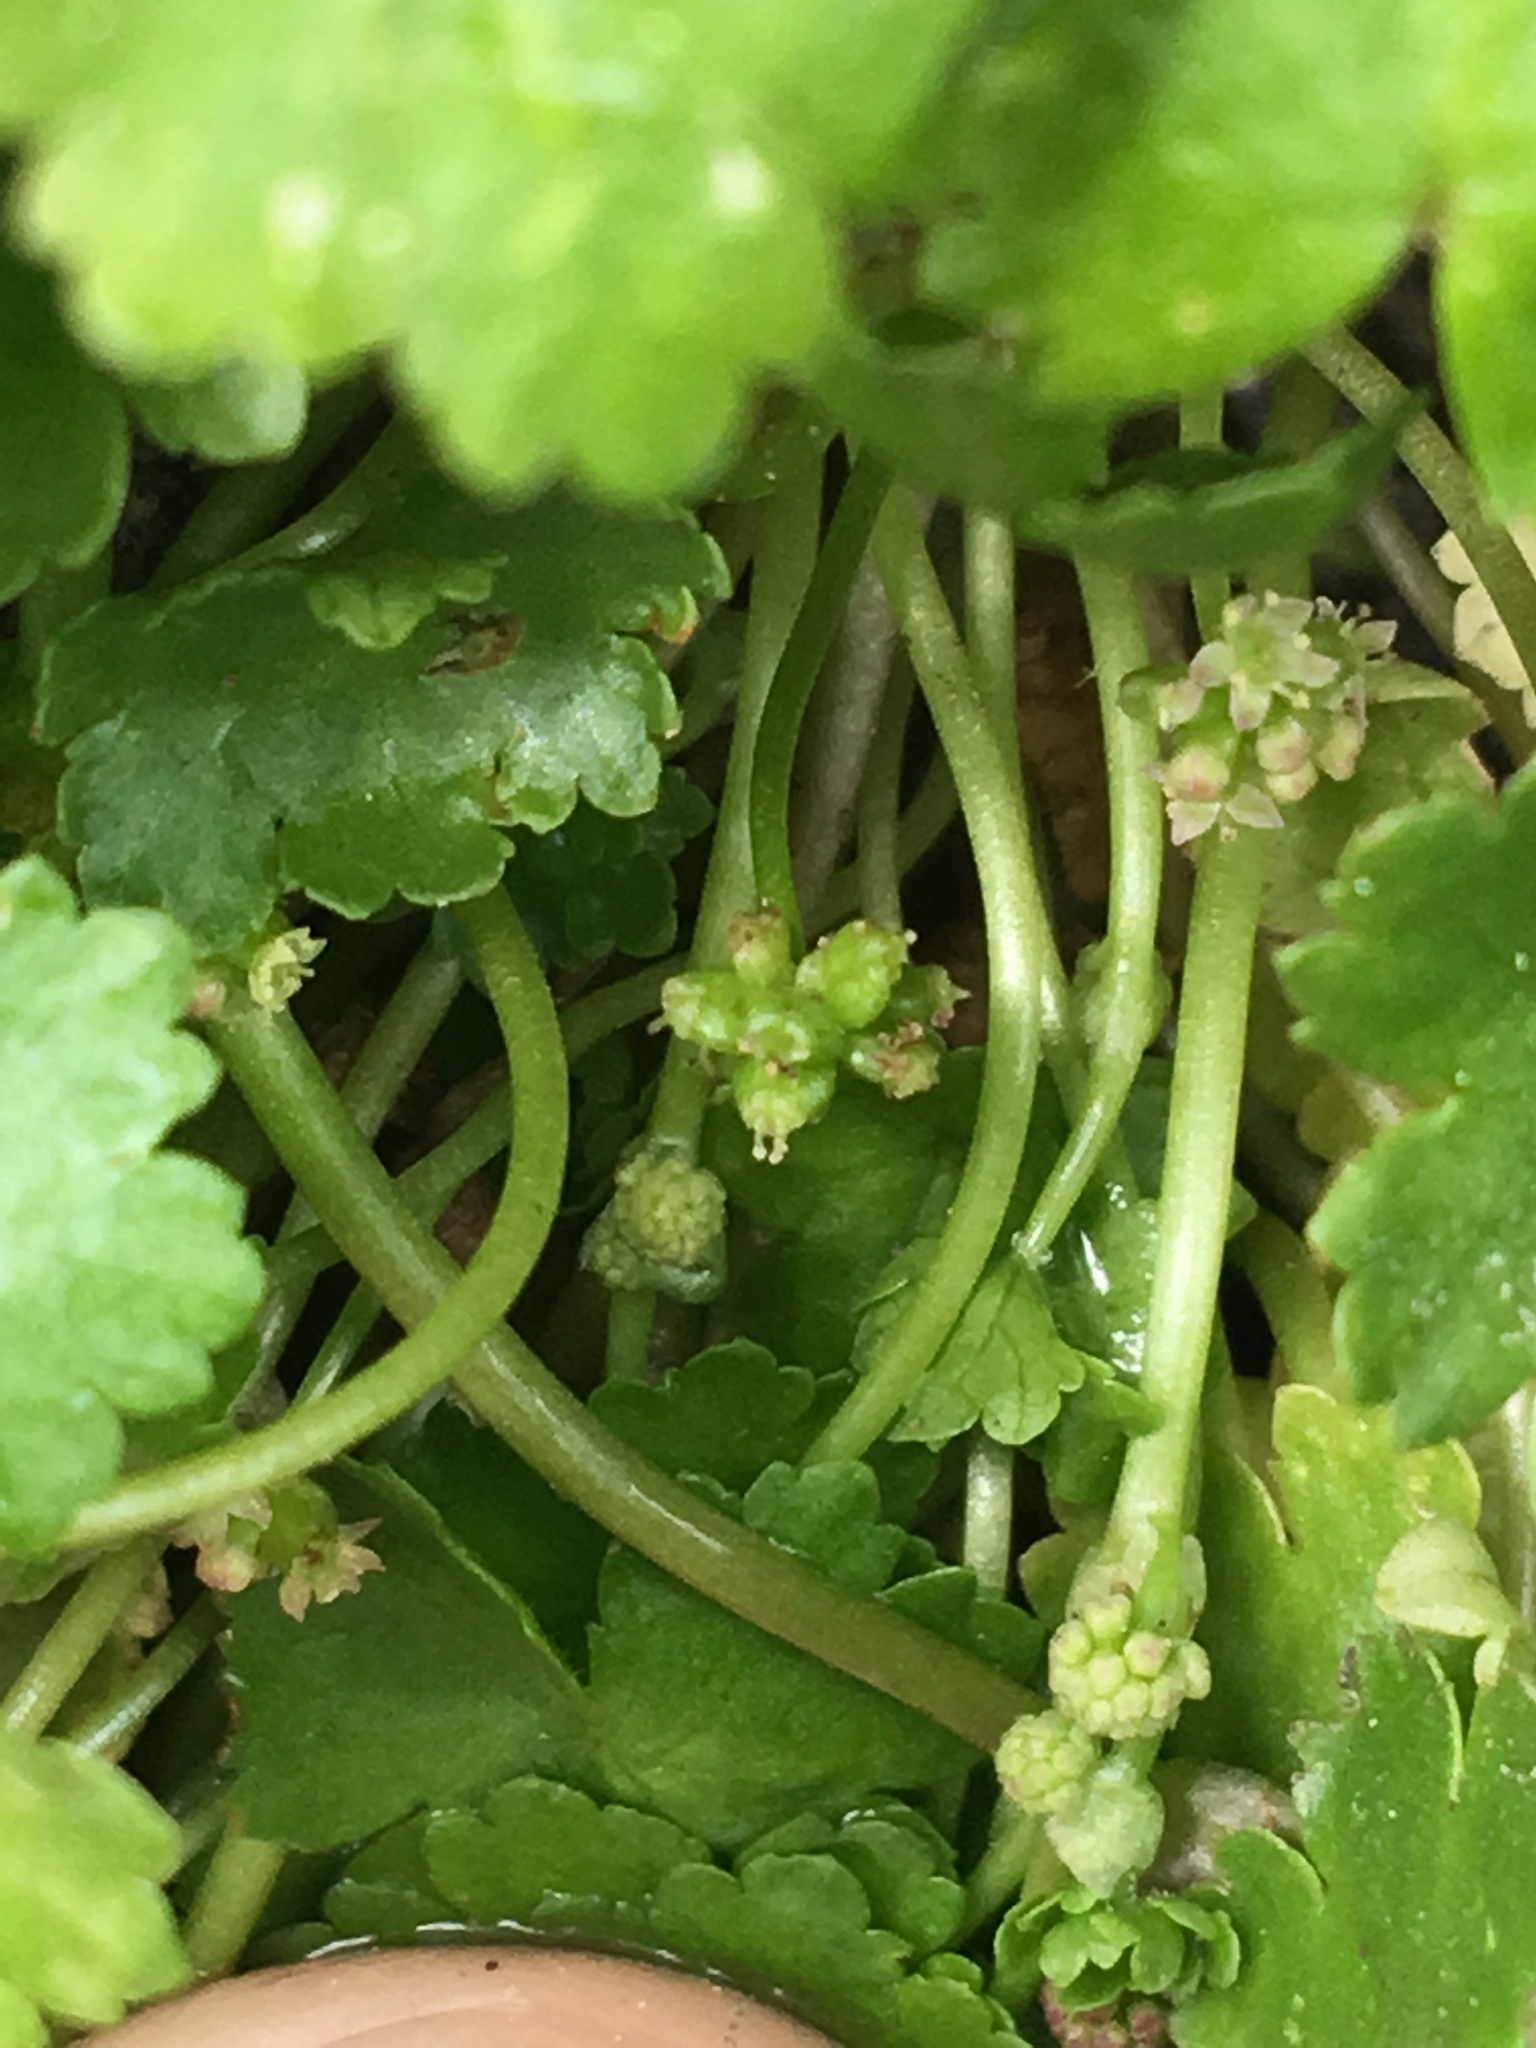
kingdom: Plantae
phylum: Tracheophyta
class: Magnoliopsida
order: Apiales
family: Araliaceae
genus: Hydrocotyle
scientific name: Hydrocotyle sibthorpioides
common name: Lawn marshpennywort
